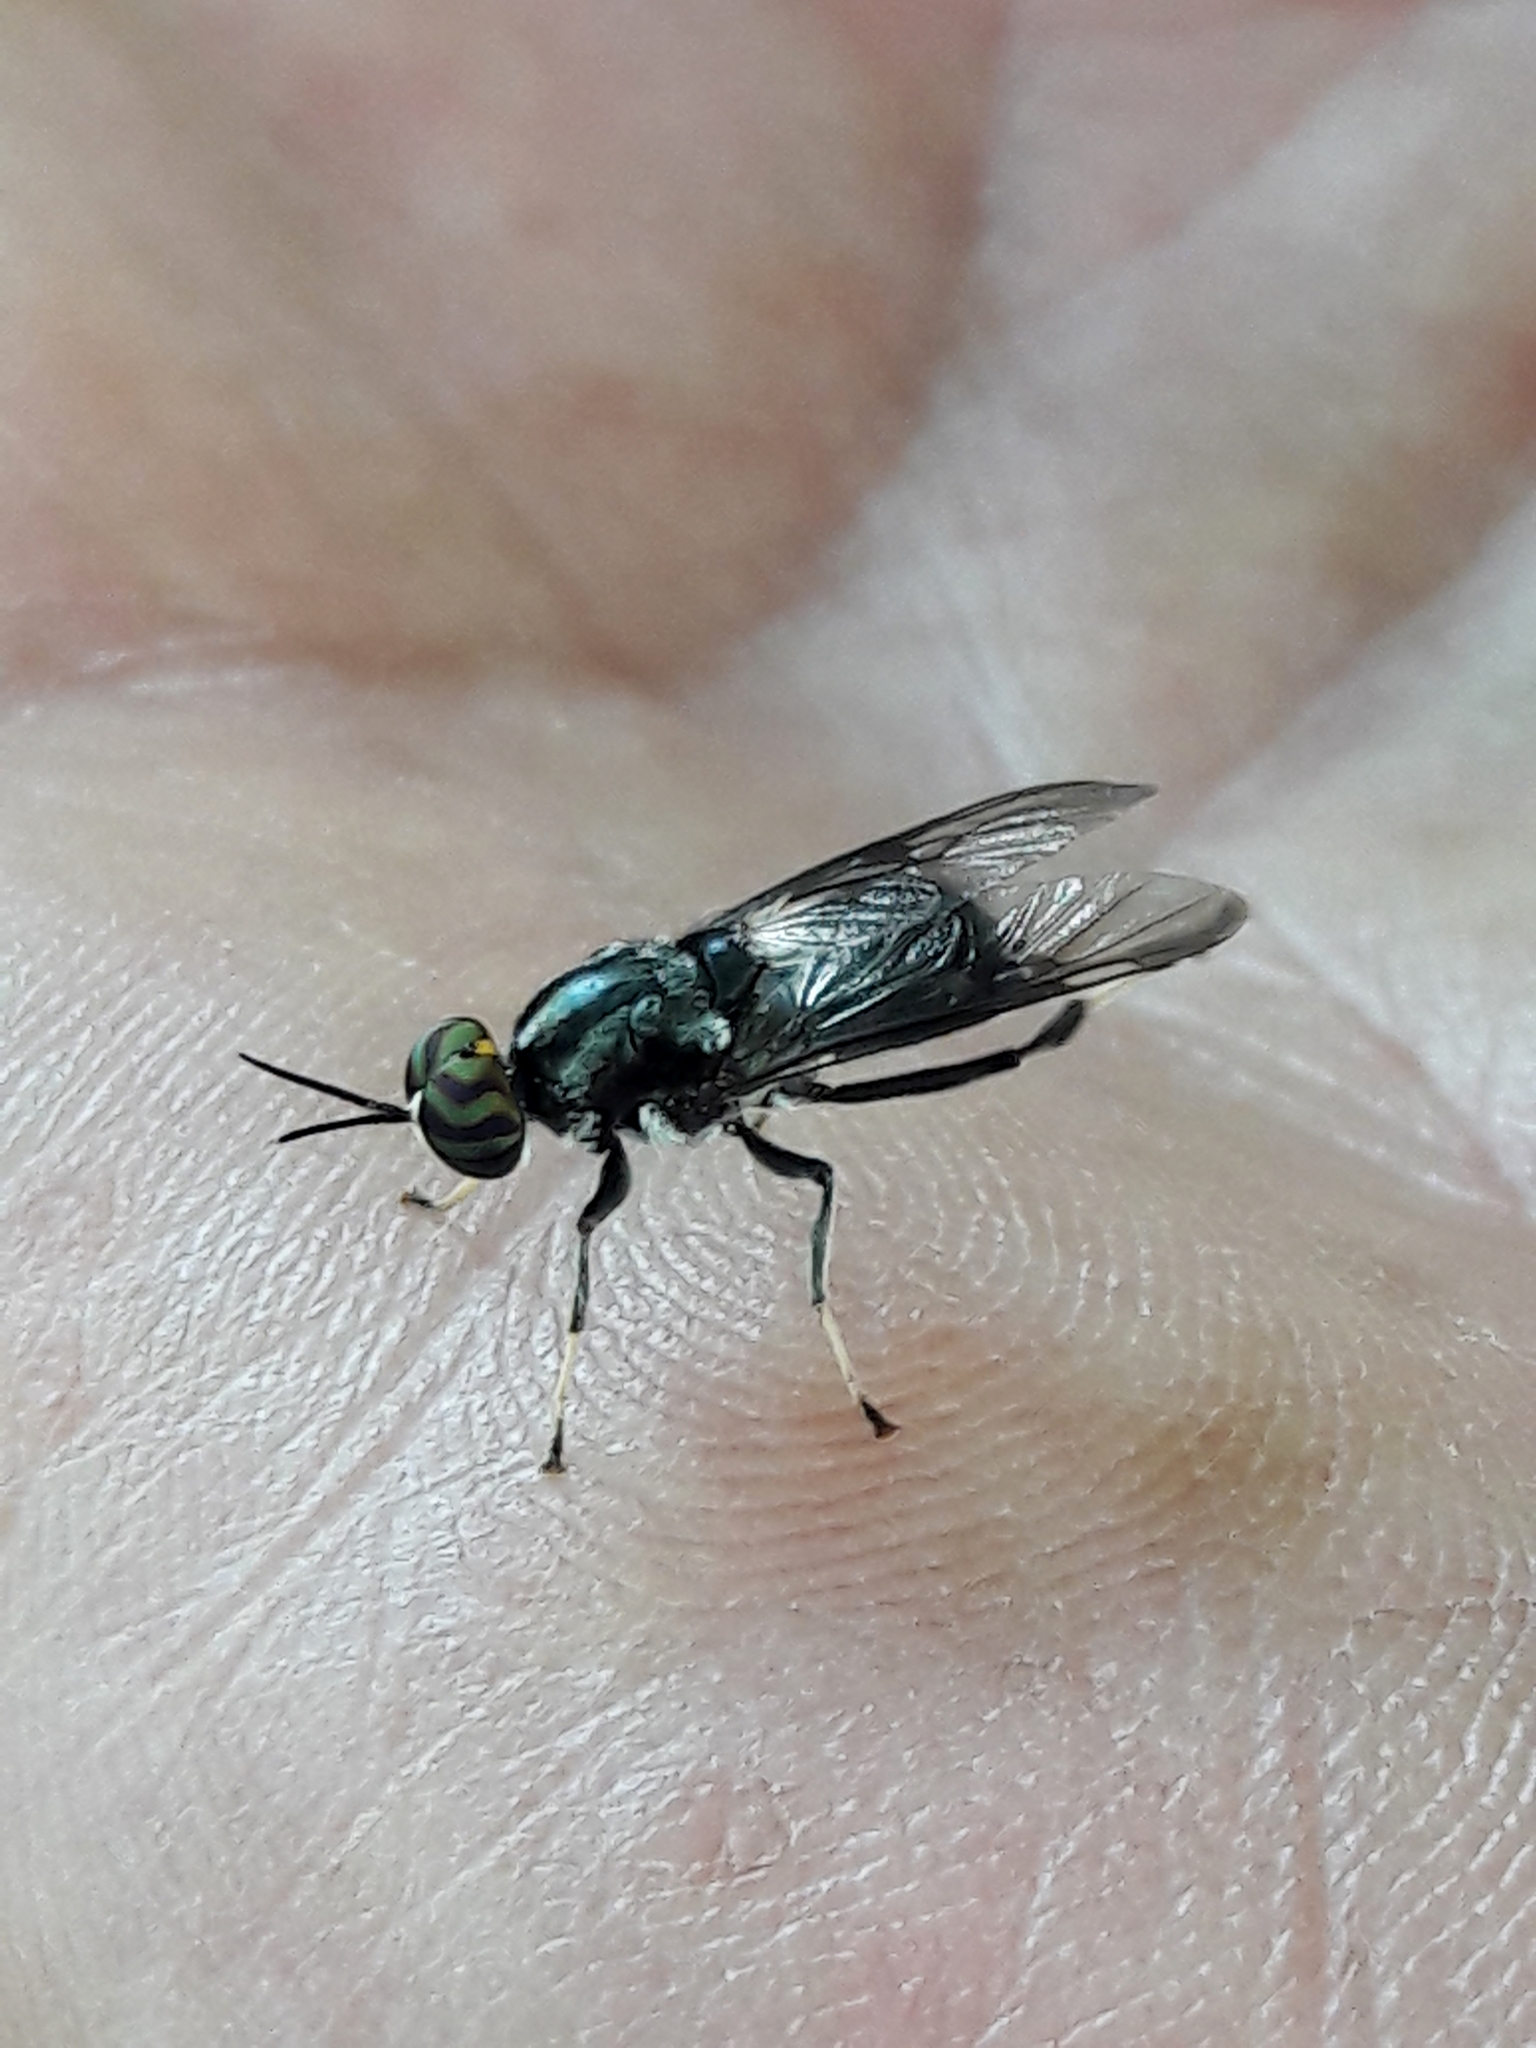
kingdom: Animalia
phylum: Arthropoda
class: Insecta
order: Diptera
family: Stratiomyidae
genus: Cyphomyia
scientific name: Cyphomyia wiedemanni
